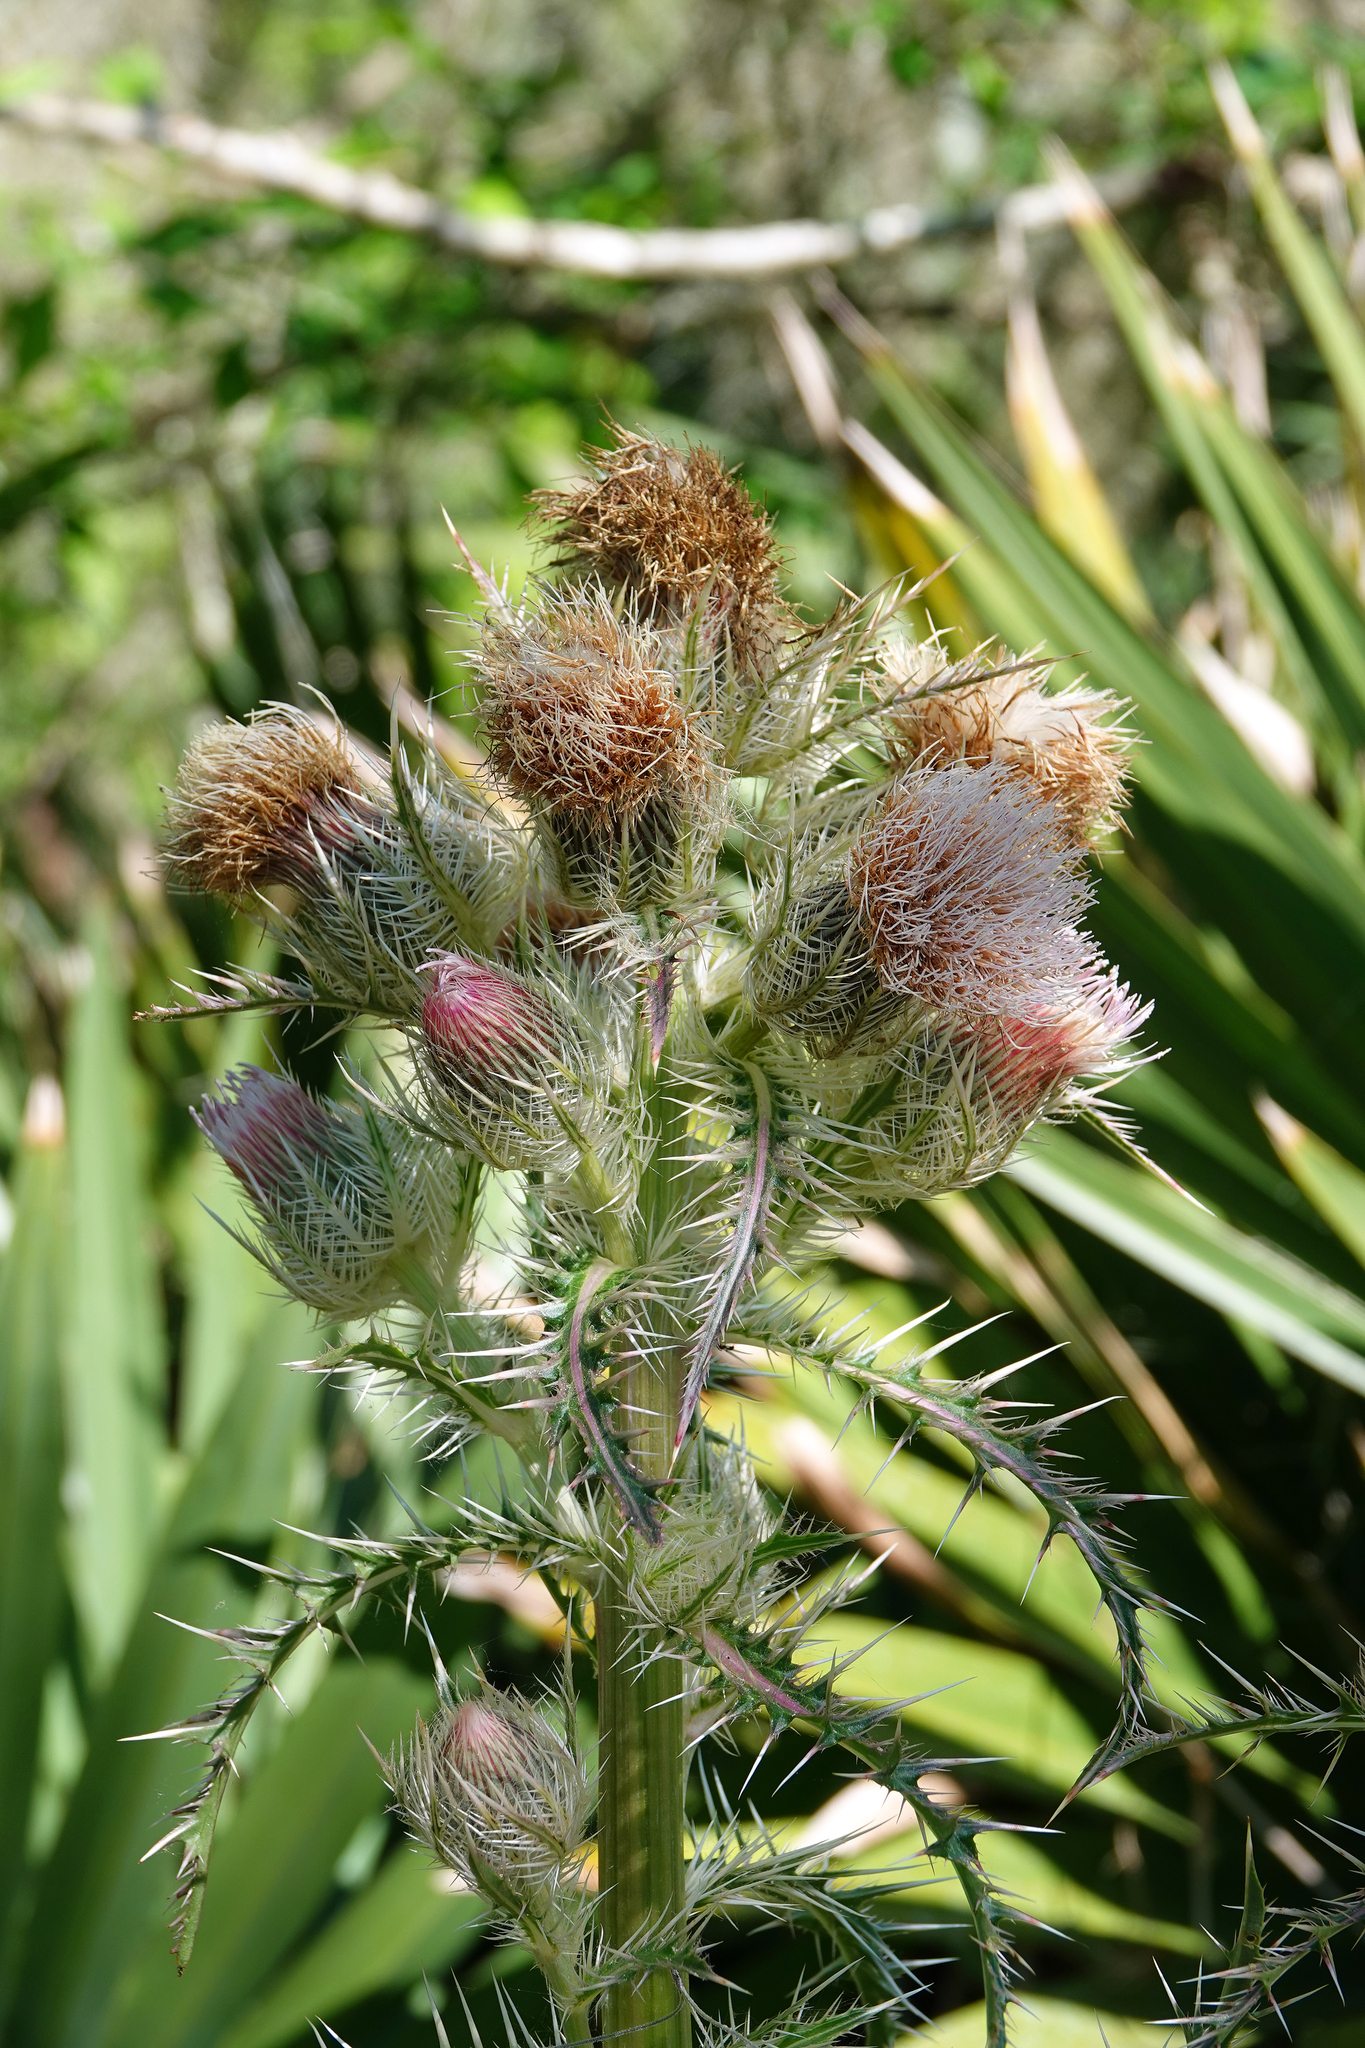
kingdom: Plantae
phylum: Tracheophyta
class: Magnoliopsida
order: Asterales
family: Asteraceae
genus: Cirsium
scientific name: Cirsium horridulum
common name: Bristly thistle
